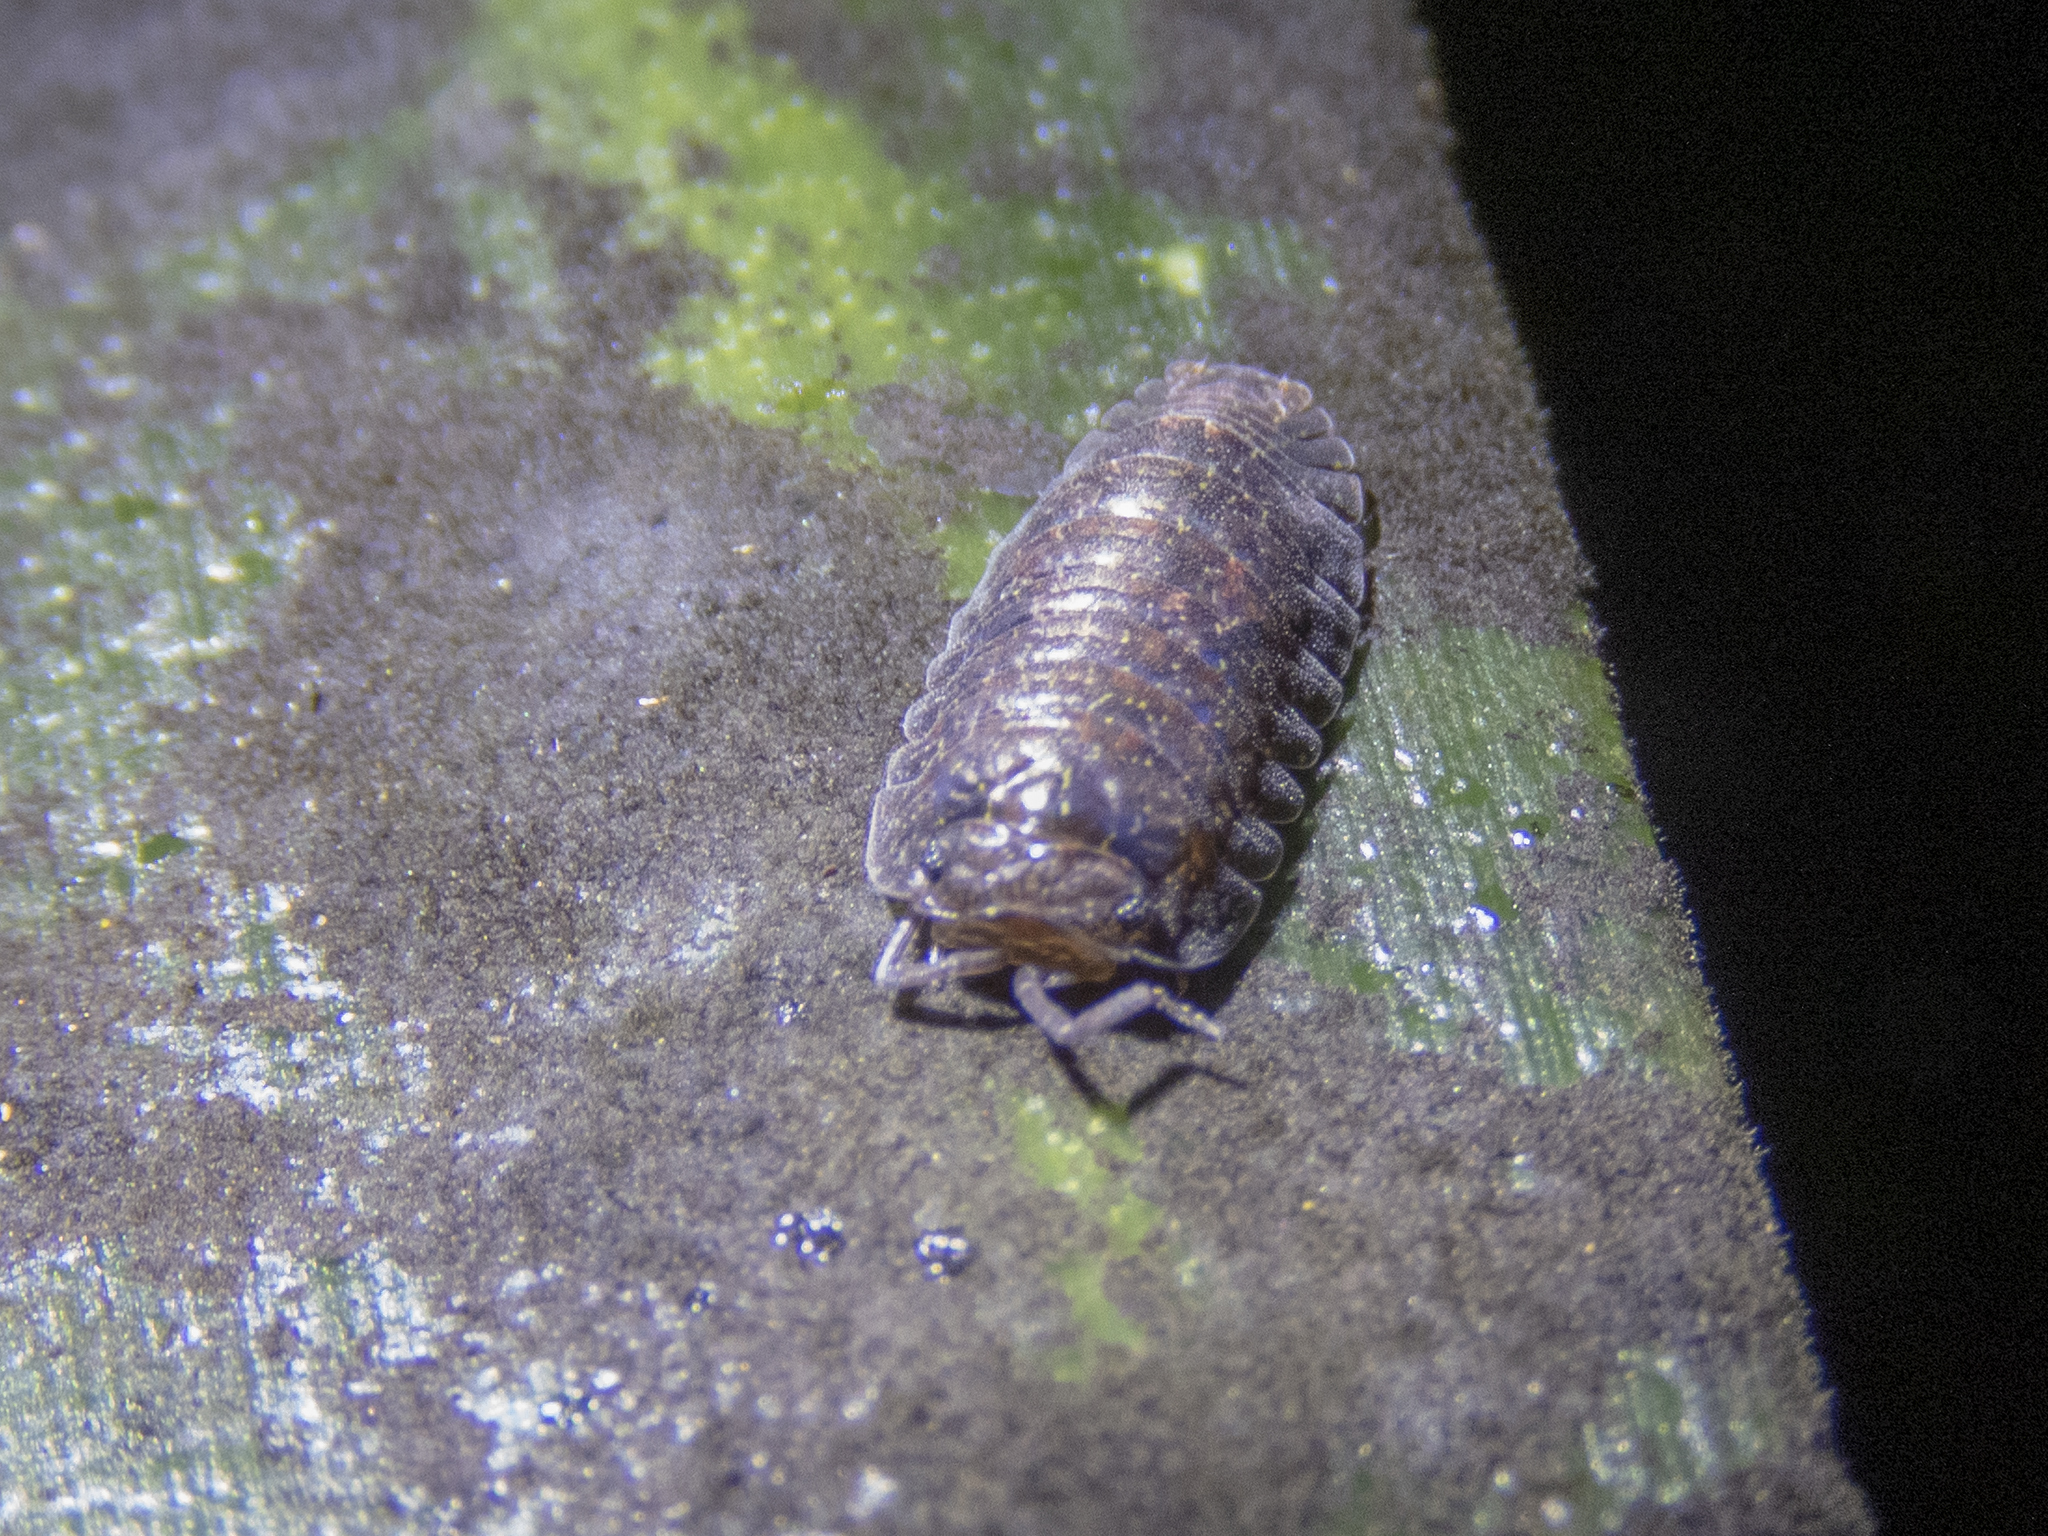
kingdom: Animalia
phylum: Arthropoda
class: Malacostraca
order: Isopoda
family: Armadillidae
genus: Cubaris
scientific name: Cubaris tarangensis
